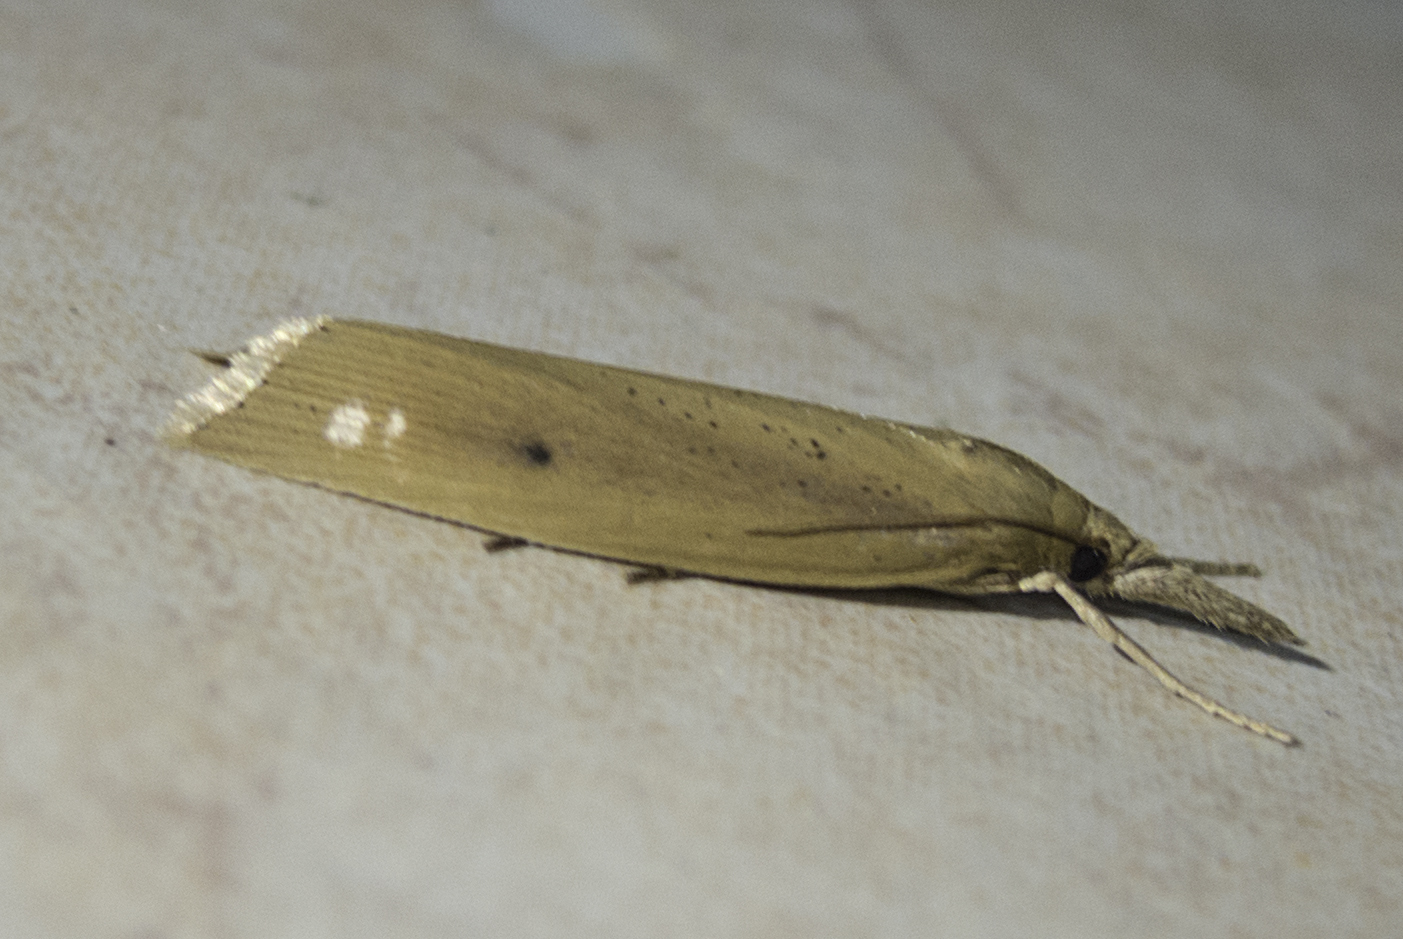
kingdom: Animalia
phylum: Arthropoda
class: Insecta
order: Lepidoptera
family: Crambidae
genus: Chilo
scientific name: Chilo phragmitella
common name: Reed veneer
